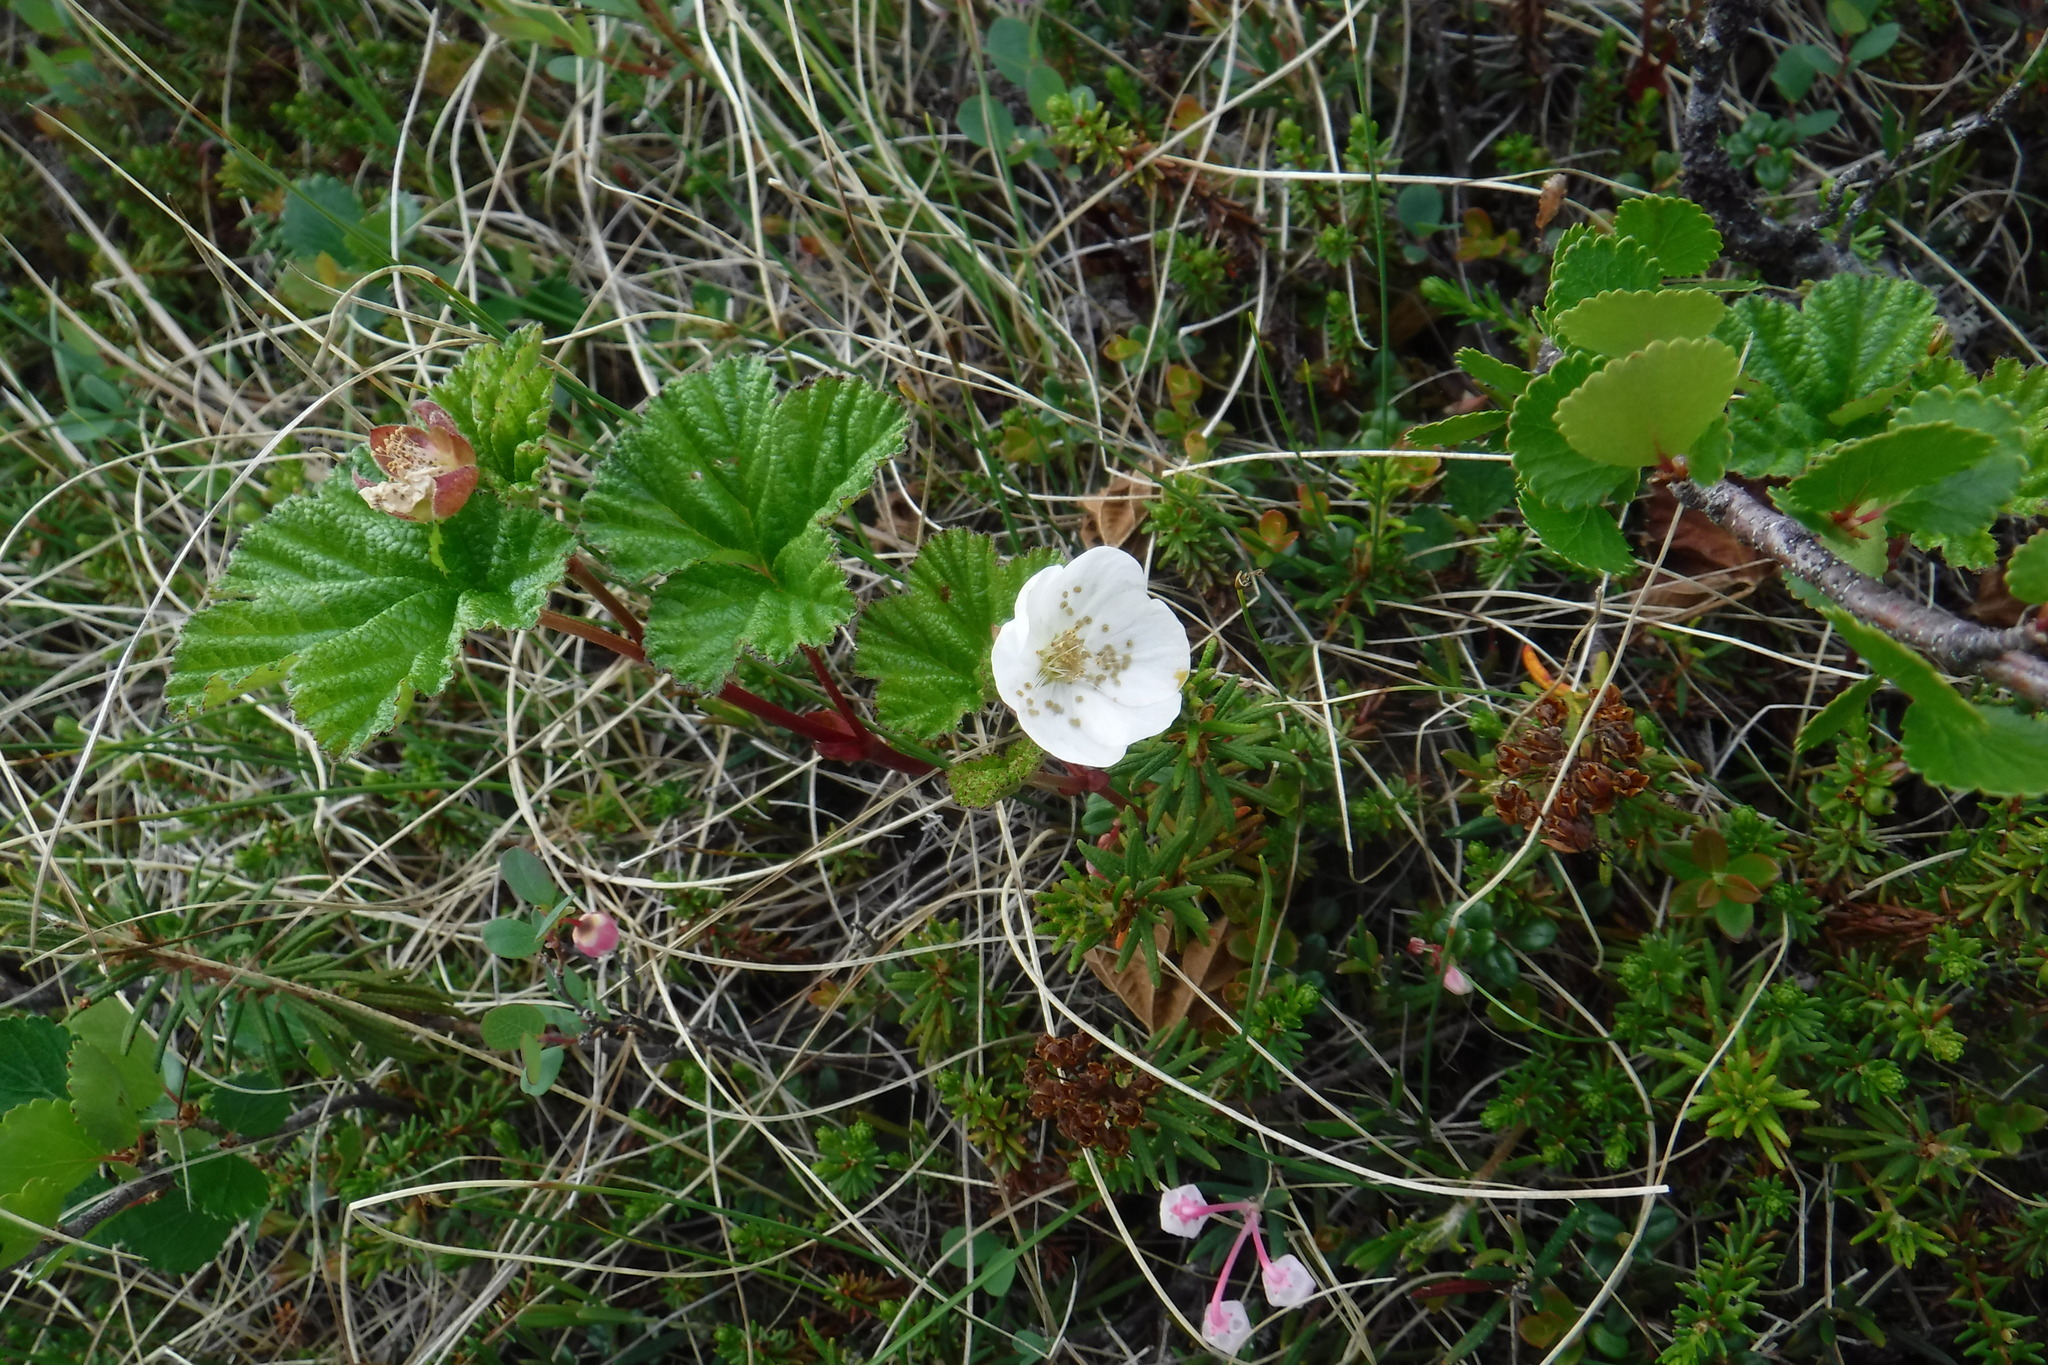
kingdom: Plantae
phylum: Tracheophyta
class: Magnoliopsida
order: Rosales
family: Rosaceae
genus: Rubus
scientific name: Rubus chamaemorus
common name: Cloudberry
